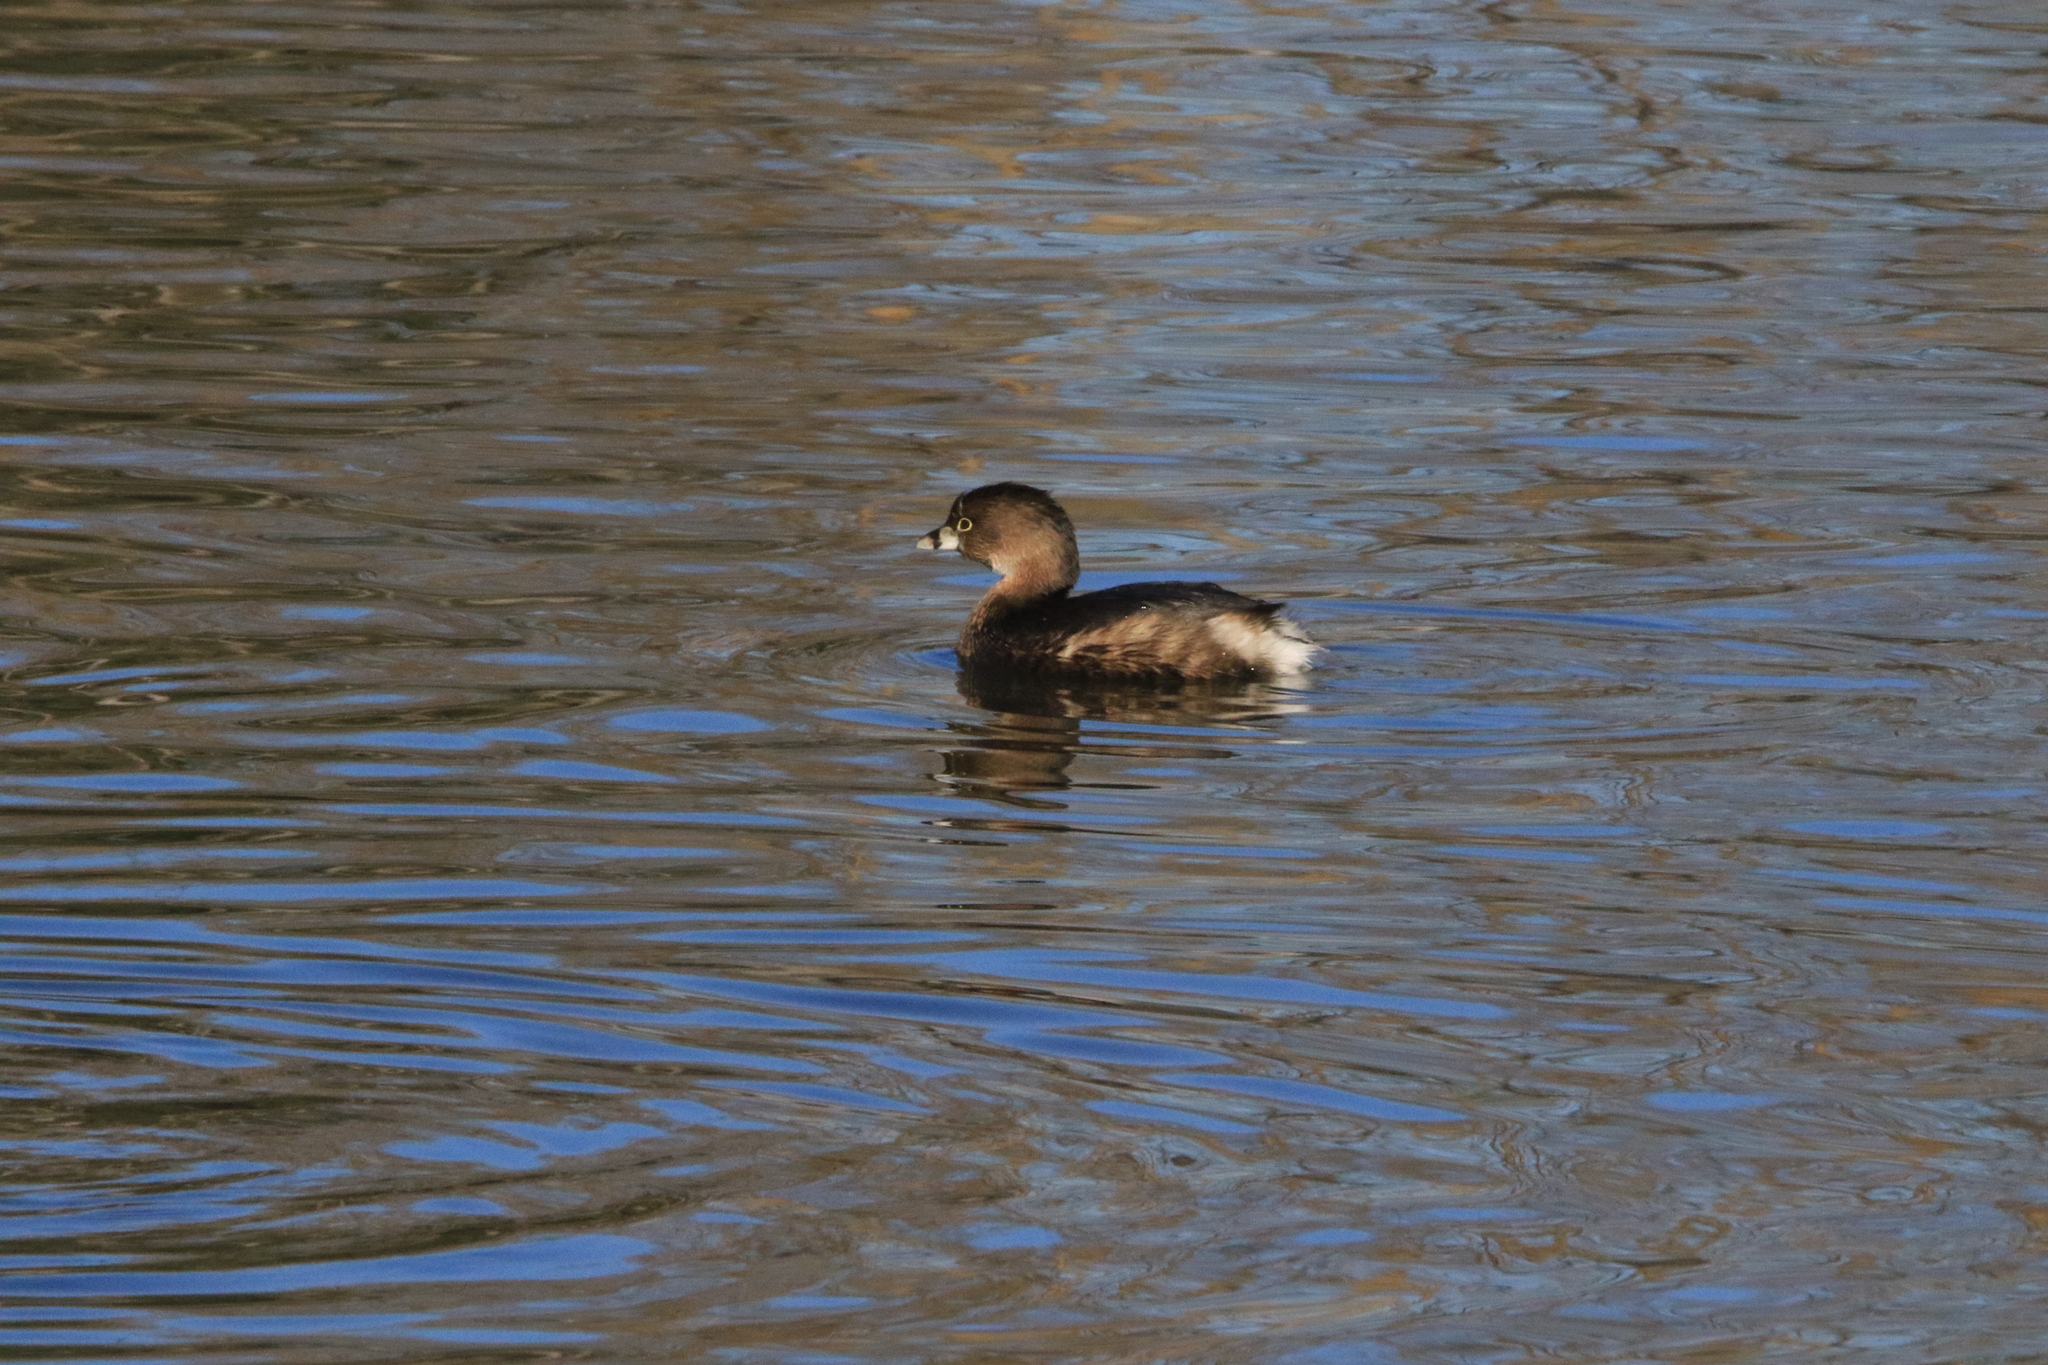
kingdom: Animalia
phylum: Chordata
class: Aves
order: Podicipediformes
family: Podicipedidae
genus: Podilymbus
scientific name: Podilymbus podiceps
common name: Pied-billed grebe
